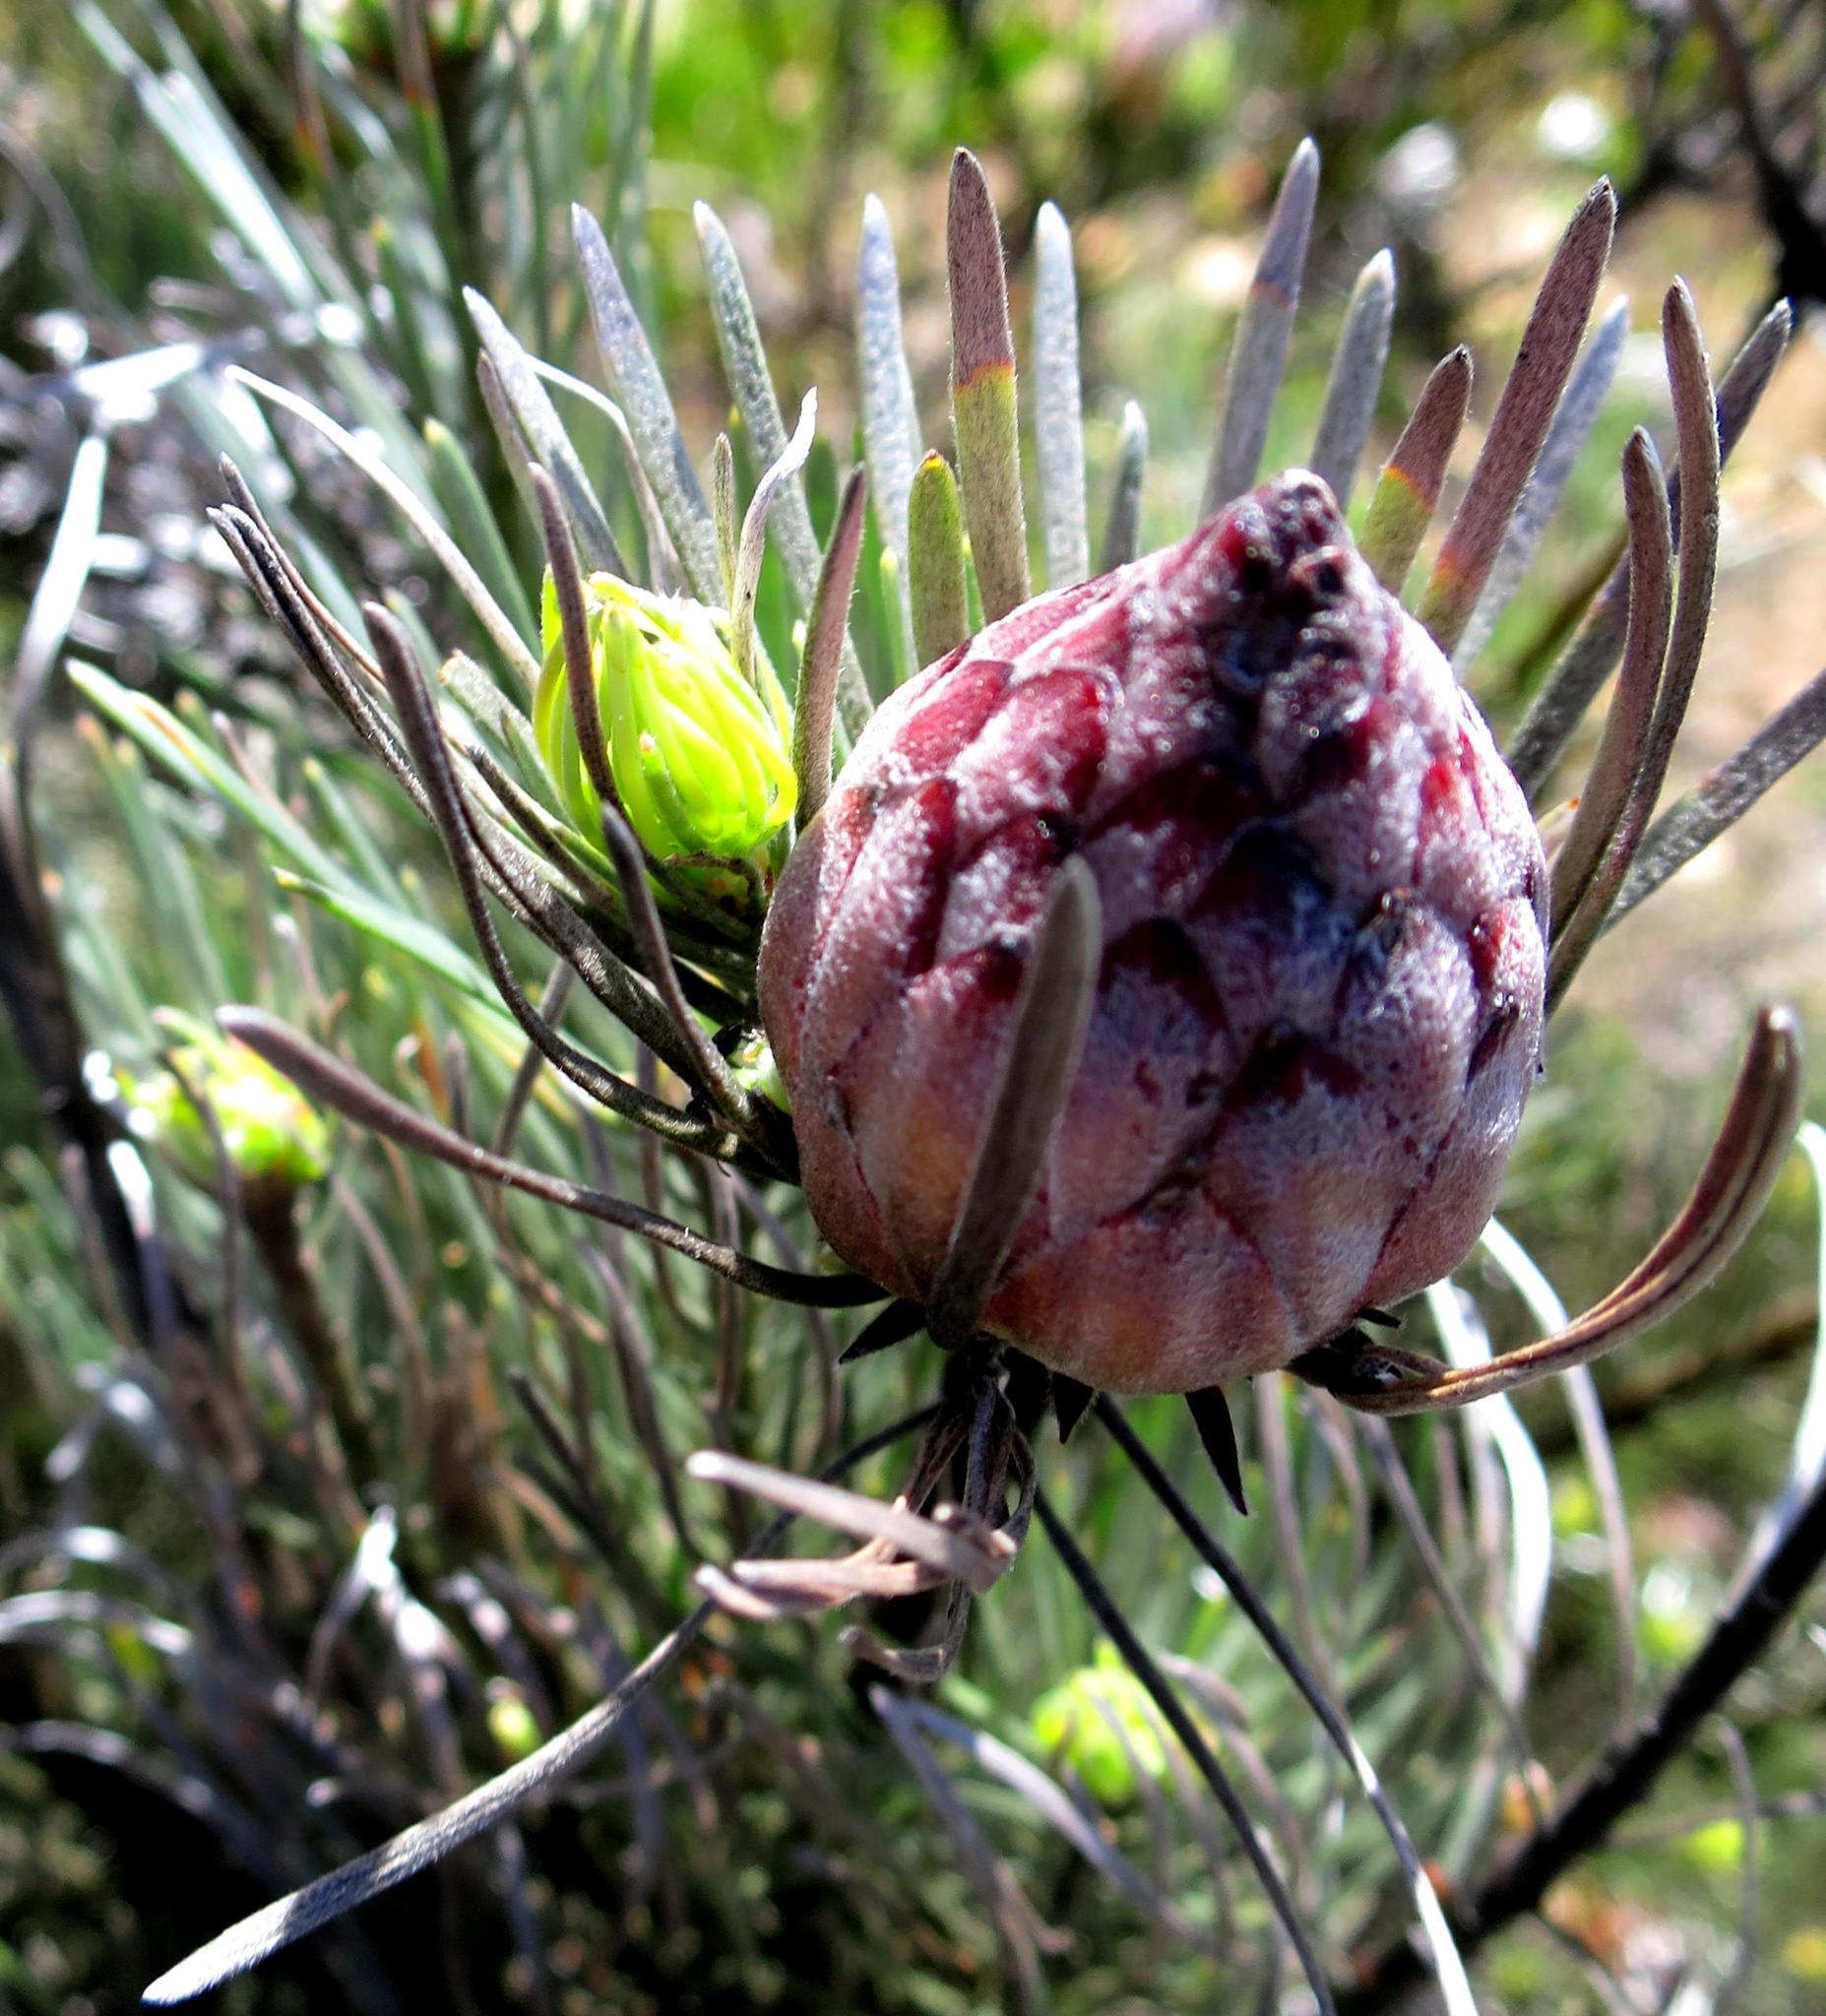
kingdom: Plantae
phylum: Tracheophyta
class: Magnoliopsida
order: Proteales
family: Proteaceae
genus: Leucadendron
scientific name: Leucadendron album
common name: Linear-leaf conebush
